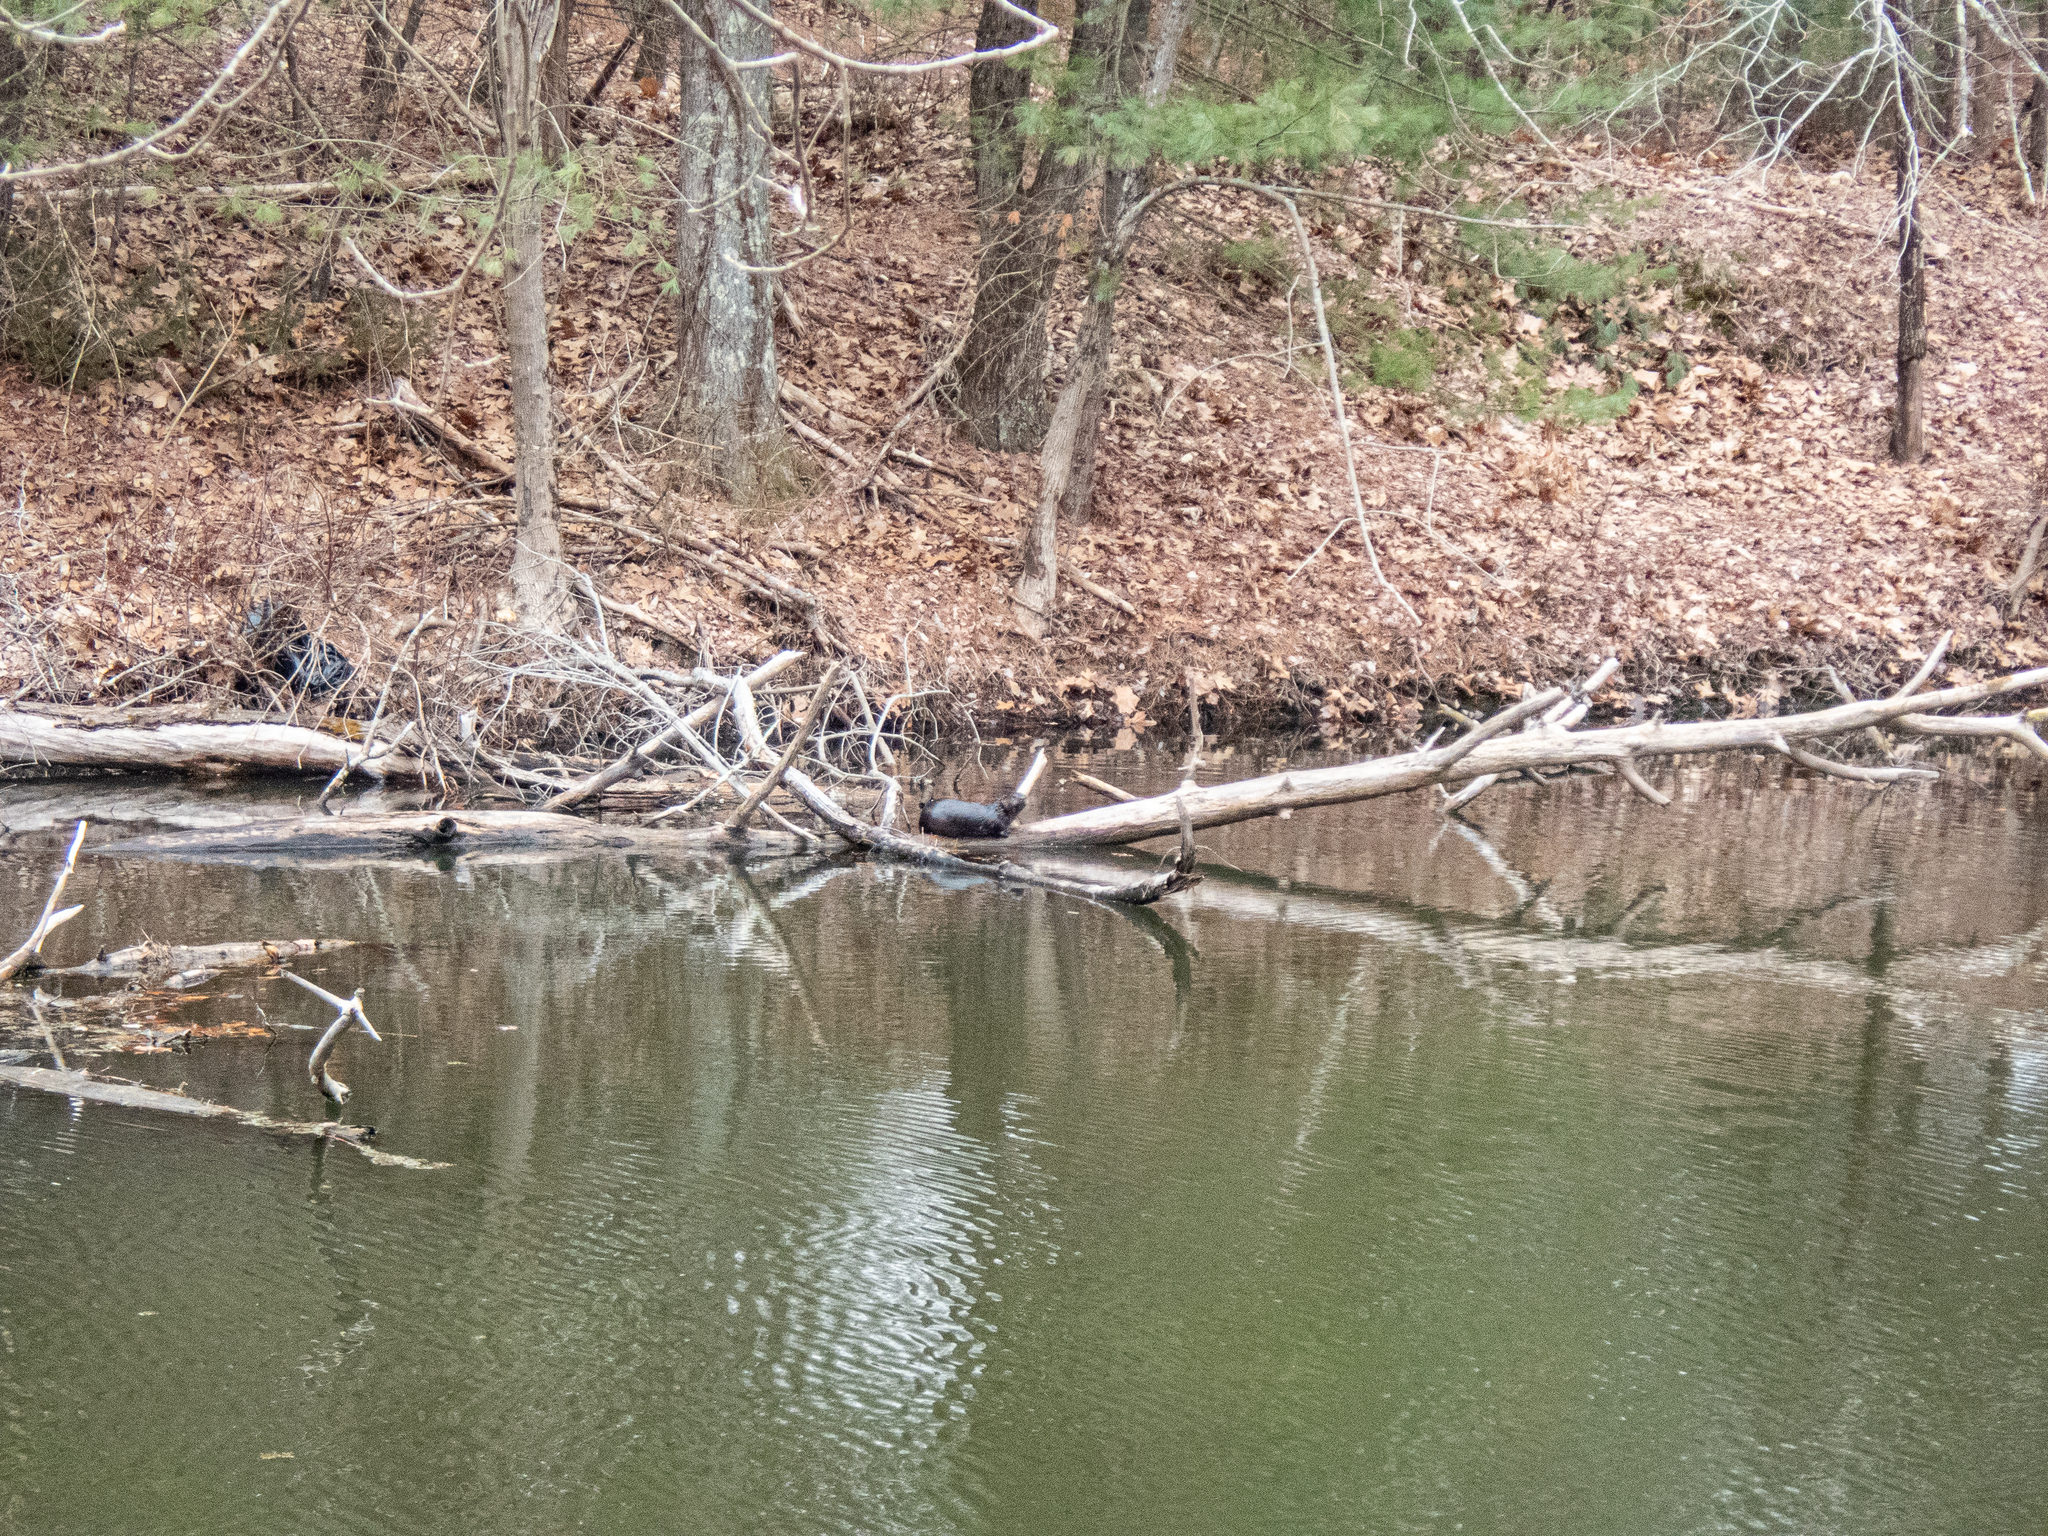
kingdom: Animalia
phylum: Chordata
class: Mammalia
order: Carnivora
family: Mustelidae
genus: Lontra
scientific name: Lontra canadensis
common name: North american river otter
